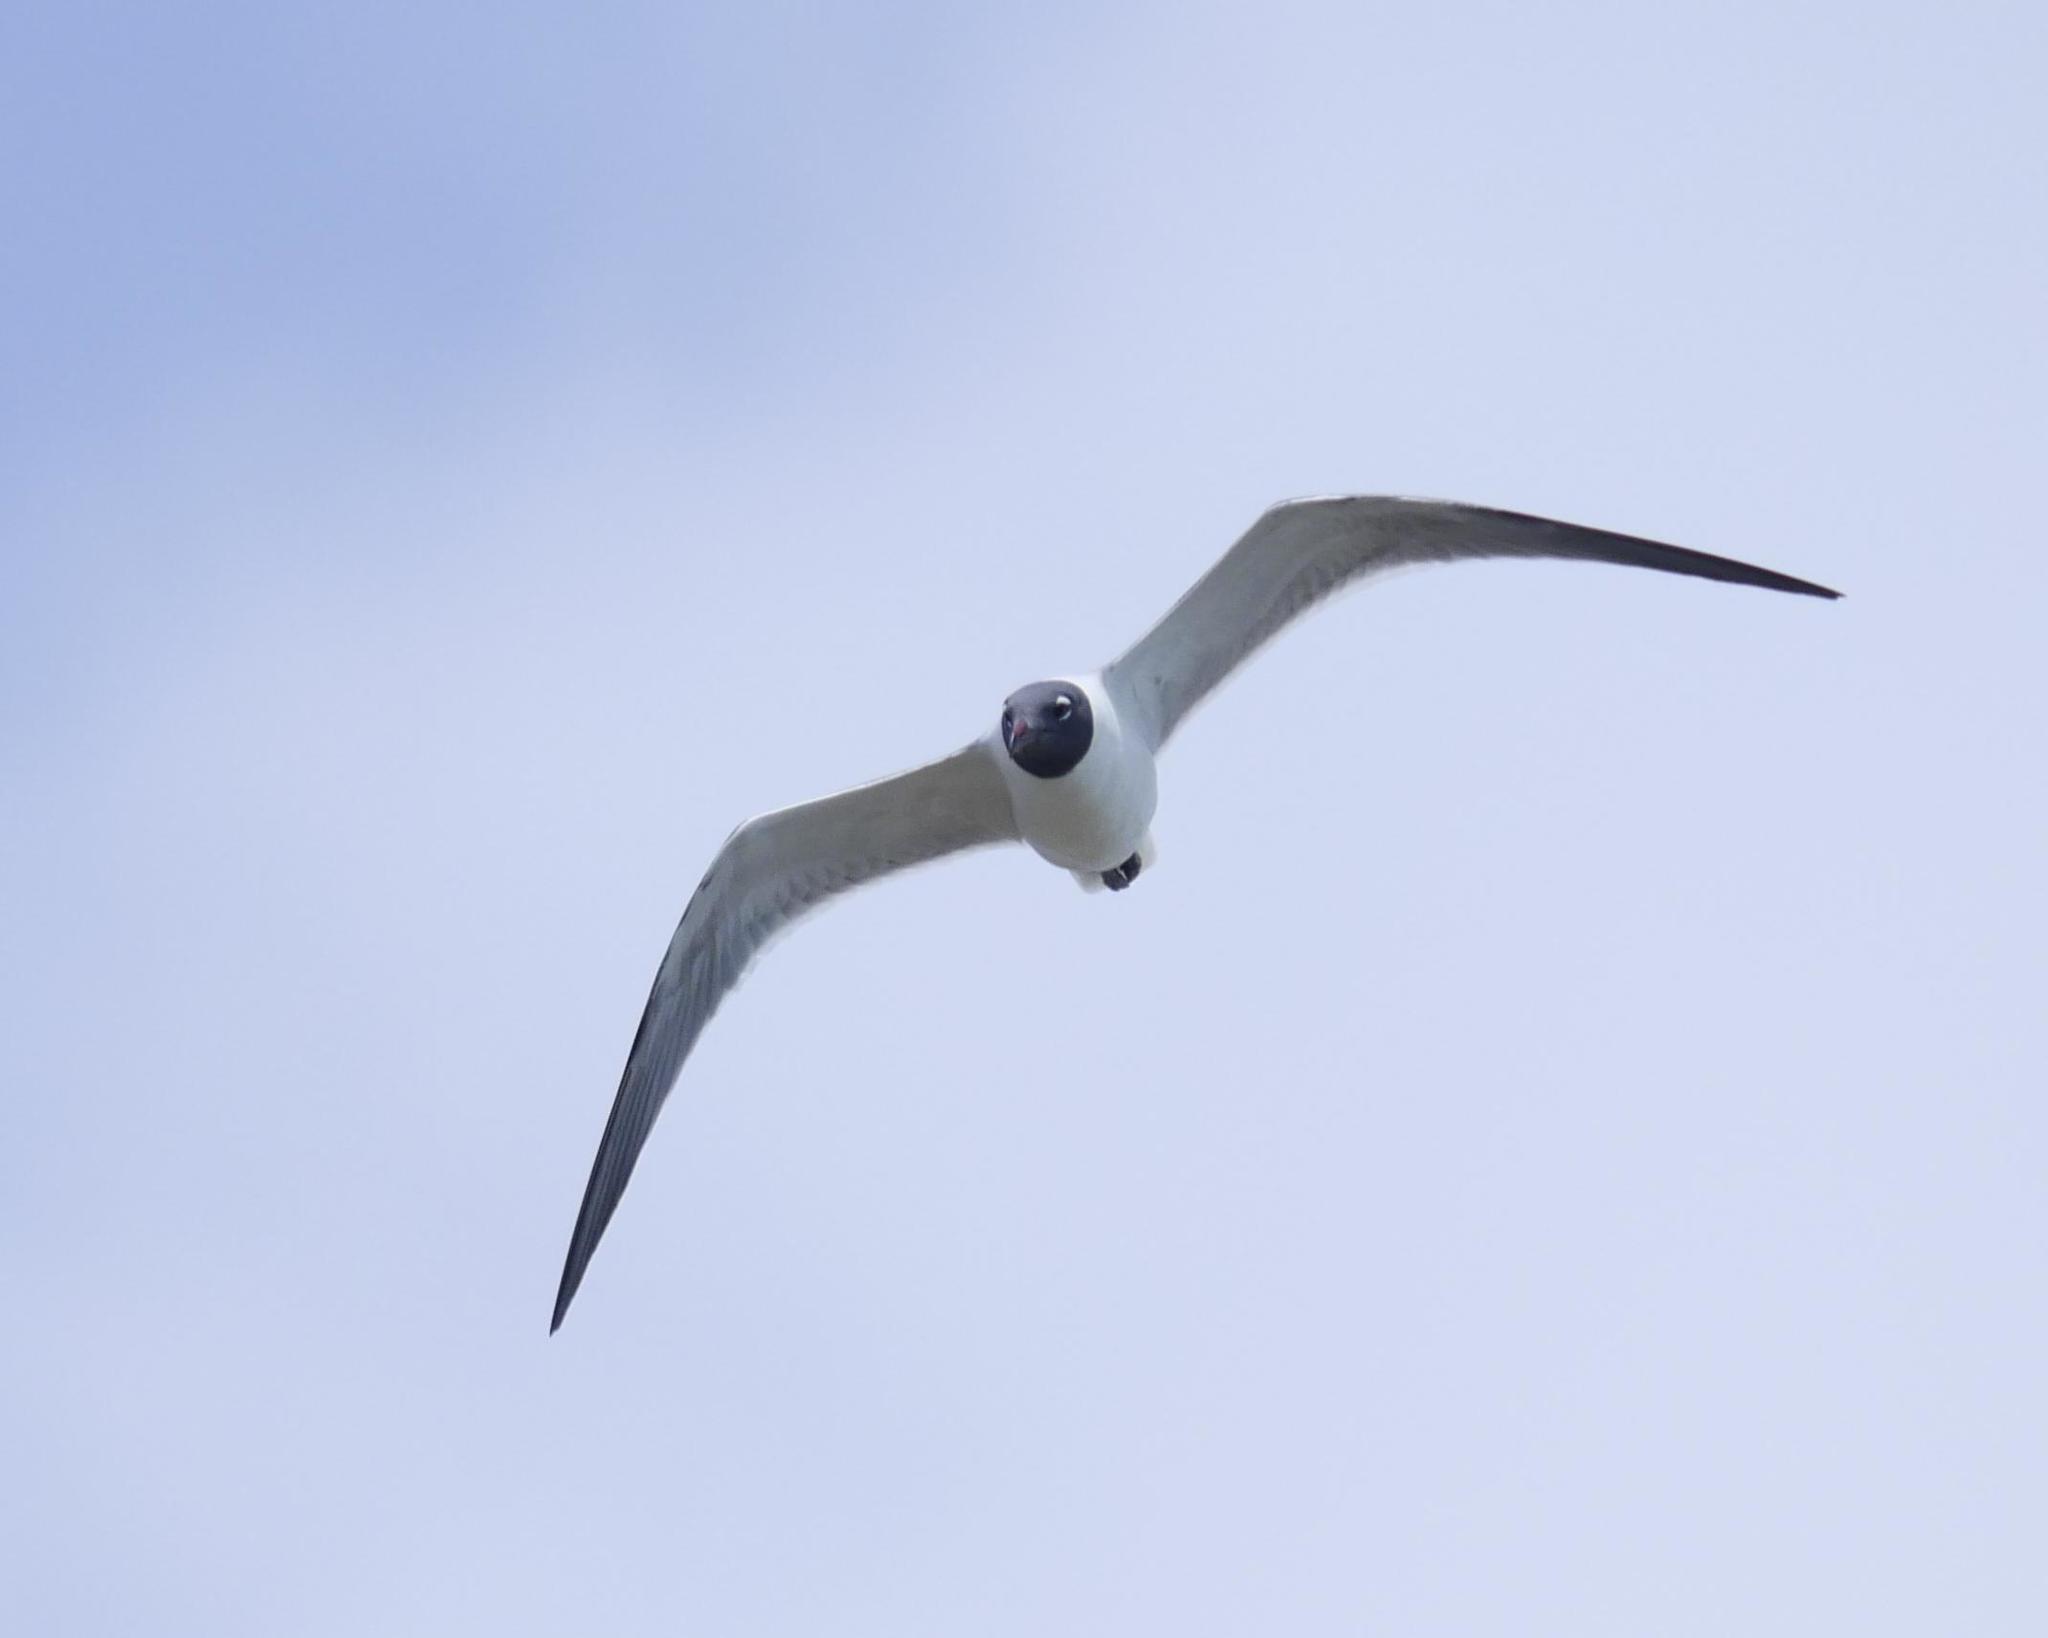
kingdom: Animalia
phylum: Chordata
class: Aves
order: Charadriiformes
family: Laridae
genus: Leucophaeus
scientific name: Leucophaeus atricilla
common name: Laughing gull
